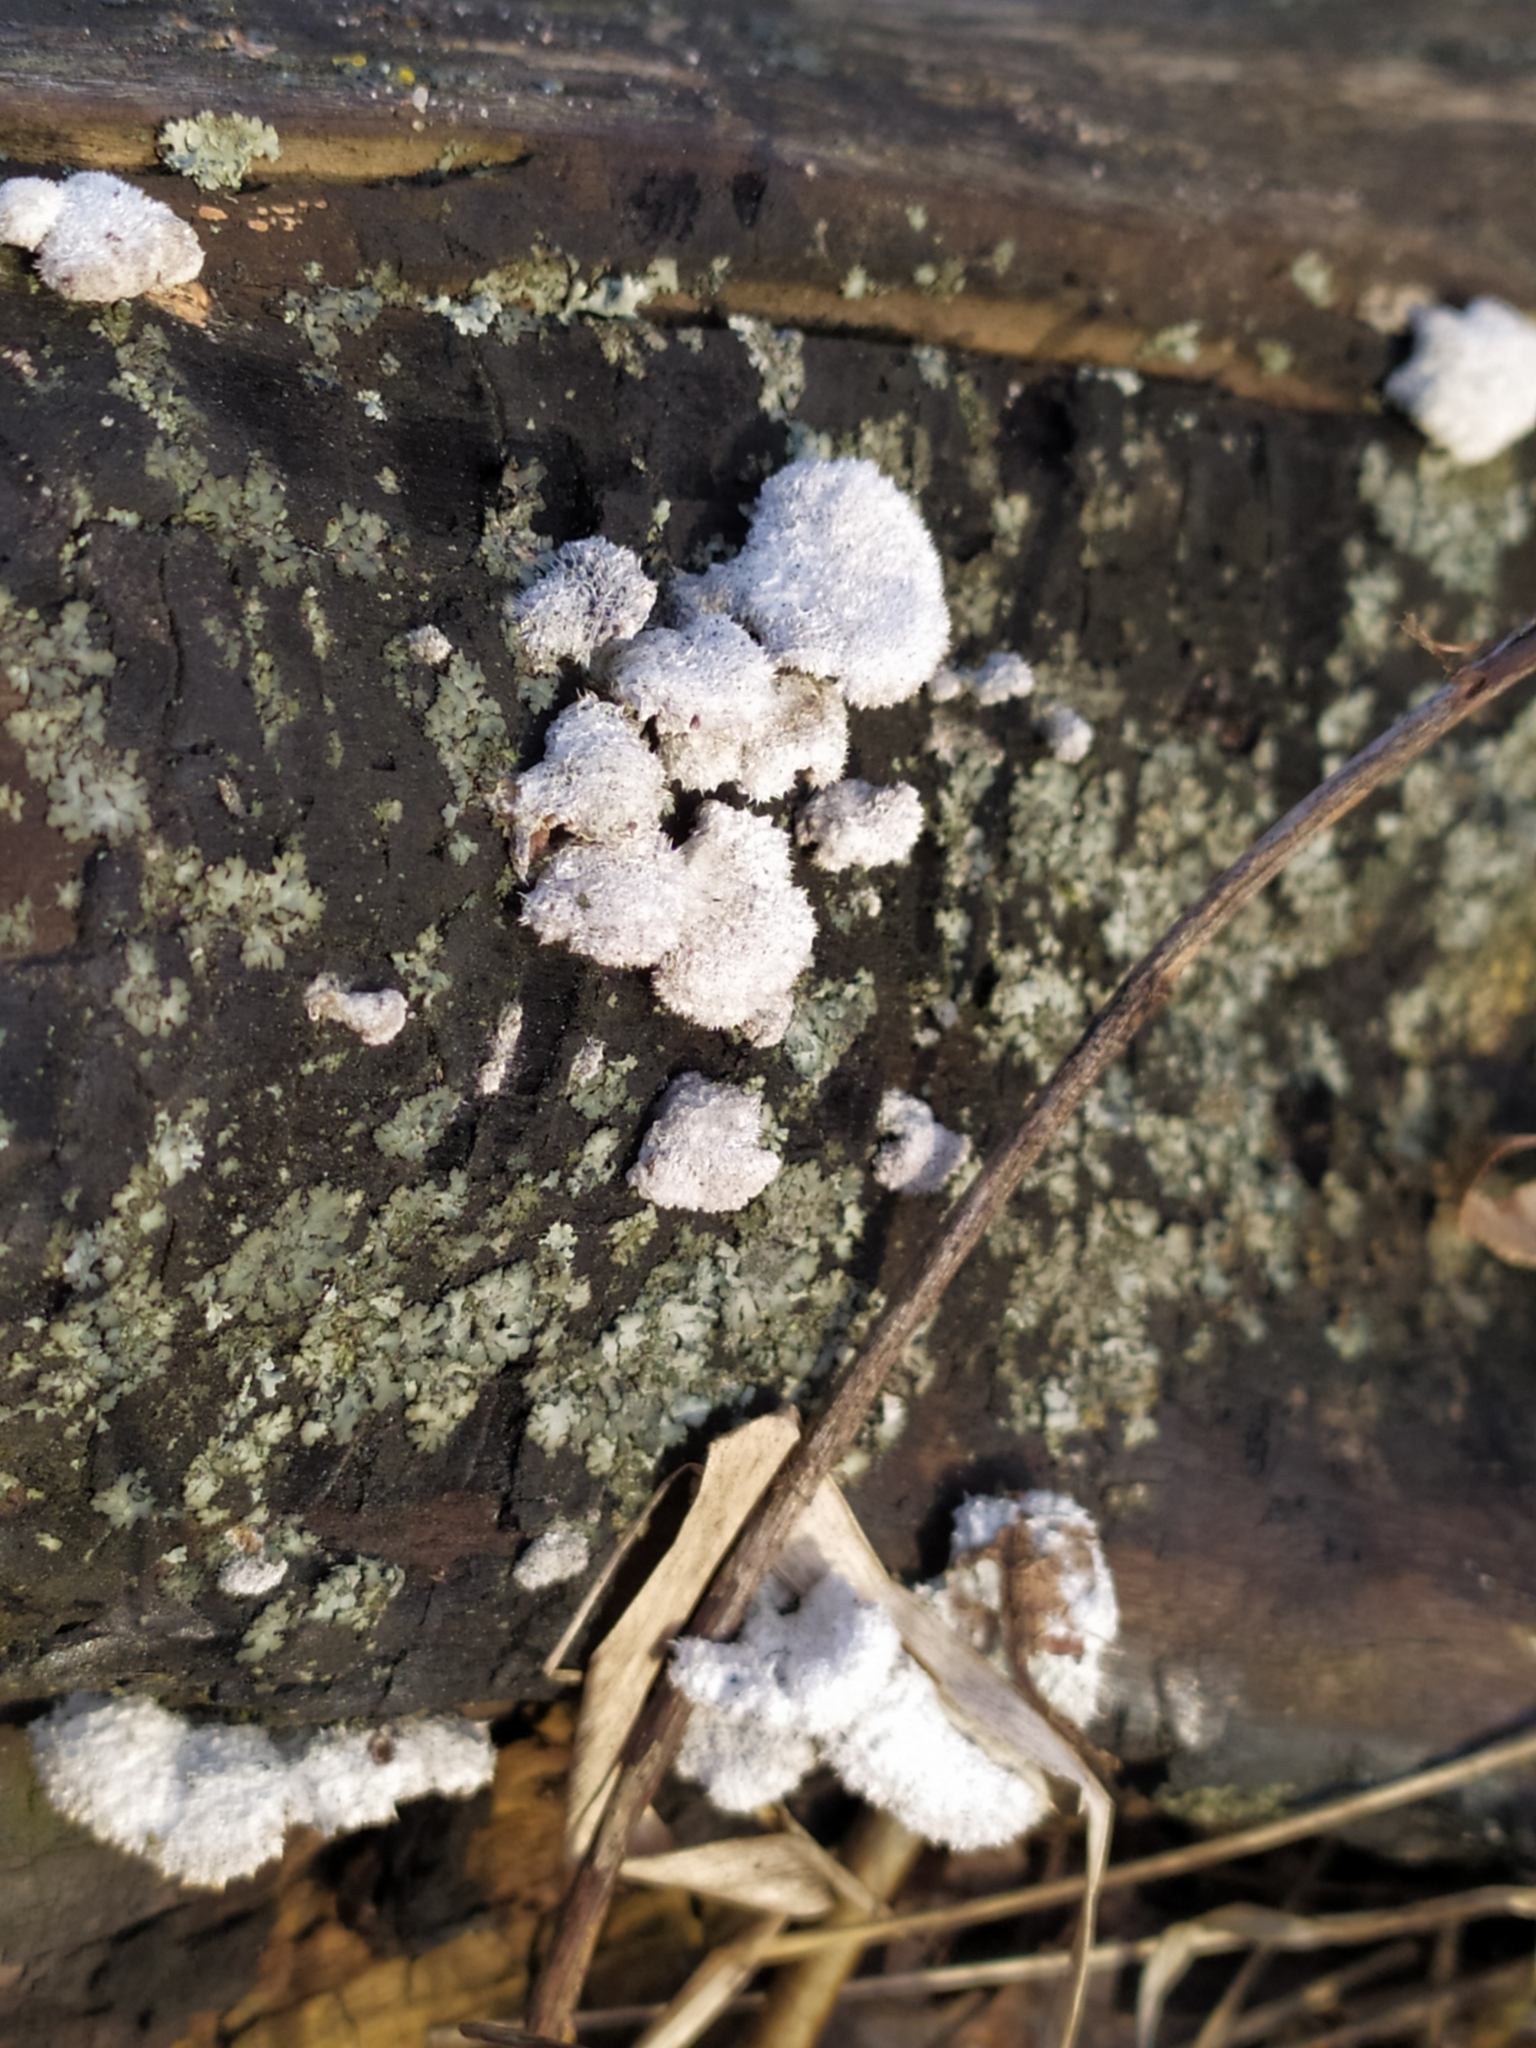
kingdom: Fungi
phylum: Basidiomycota
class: Agaricomycetes
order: Agaricales
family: Schizophyllaceae
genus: Schizophyllum
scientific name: Schizophyllum commune
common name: Common porecrust
